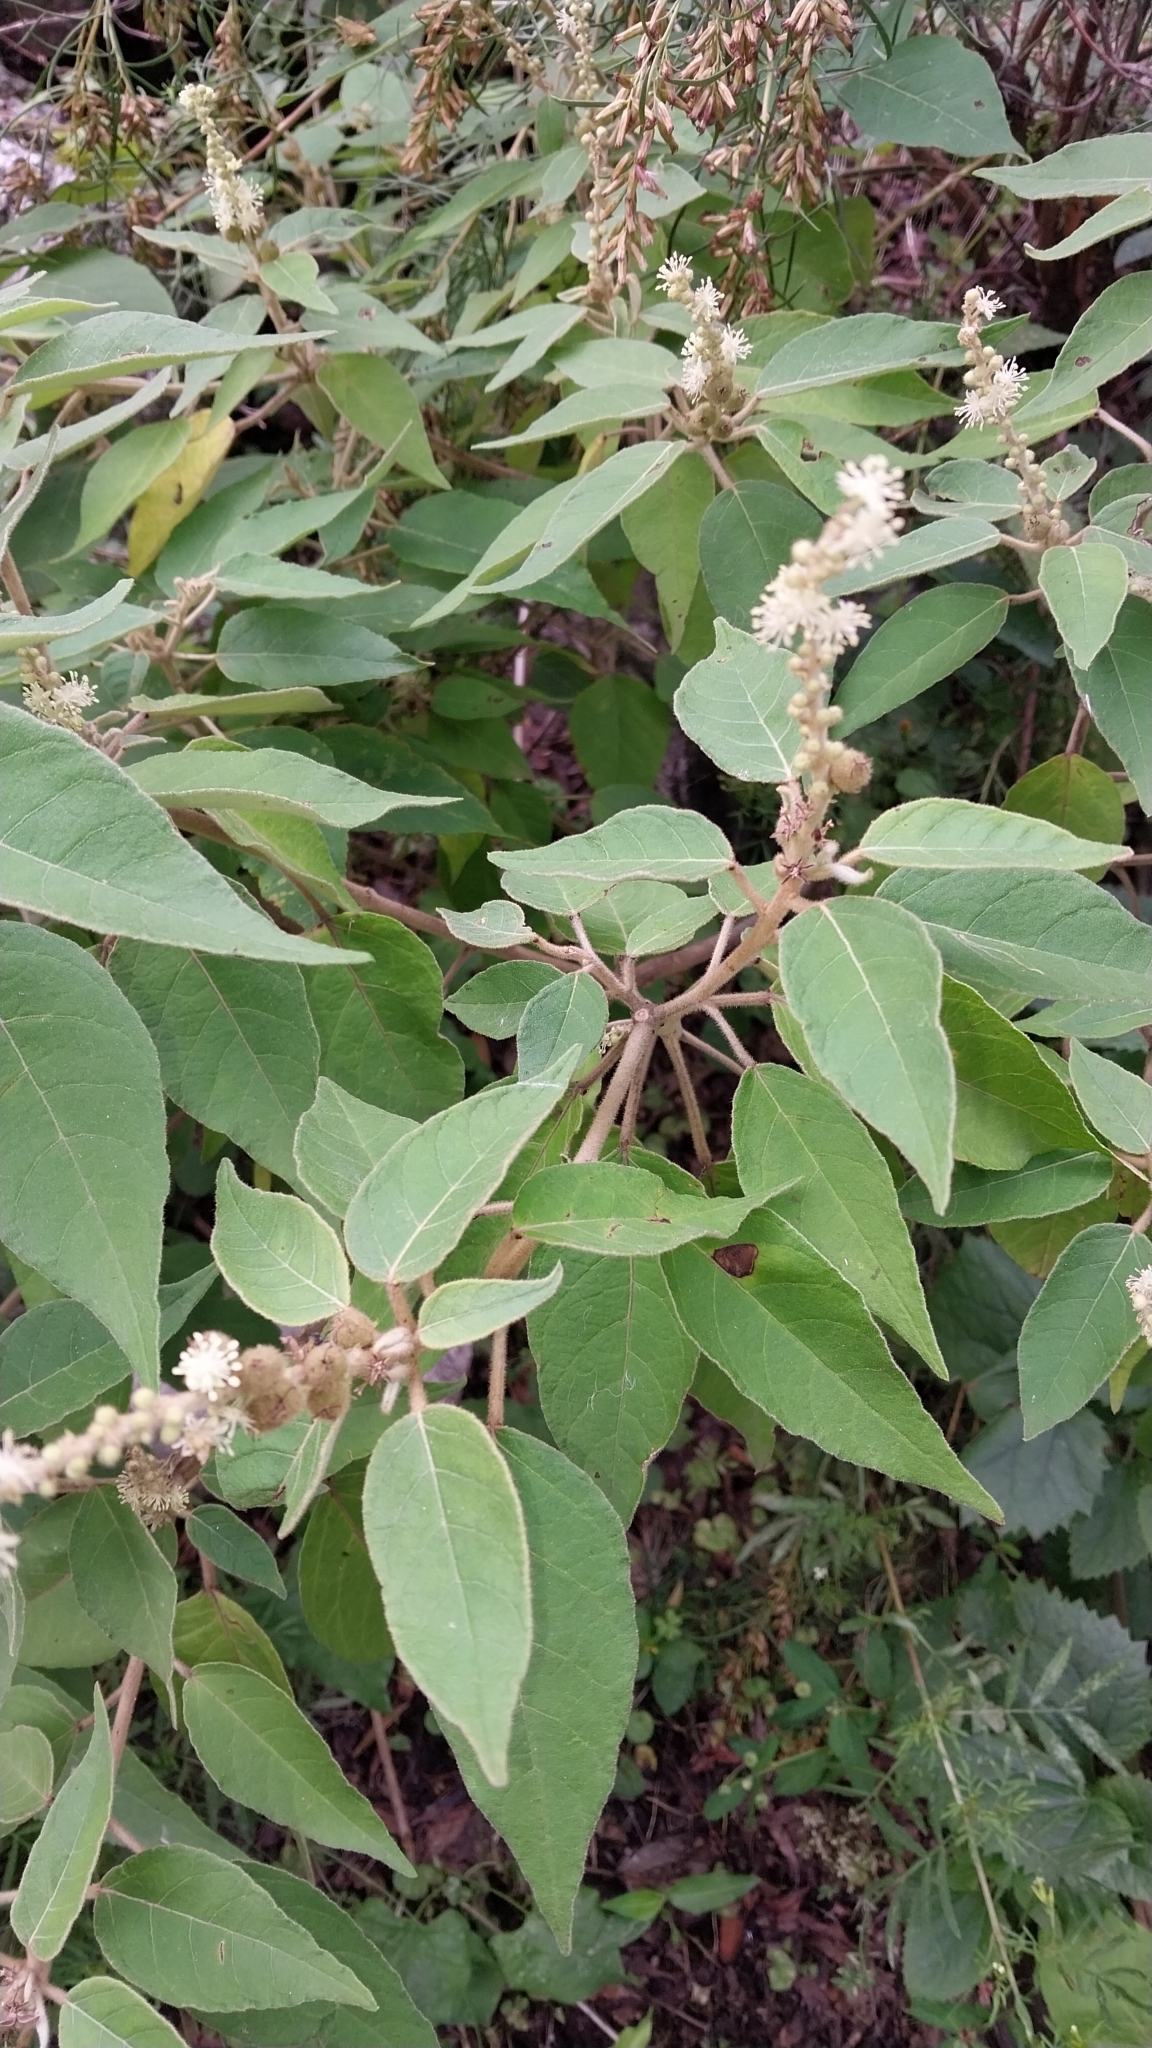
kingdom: Plantae
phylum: Tracheophyta
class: Magnoliopsida
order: Malpighiales
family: Euphorbiaceae
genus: Croton
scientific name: Croton lachnostachyus
